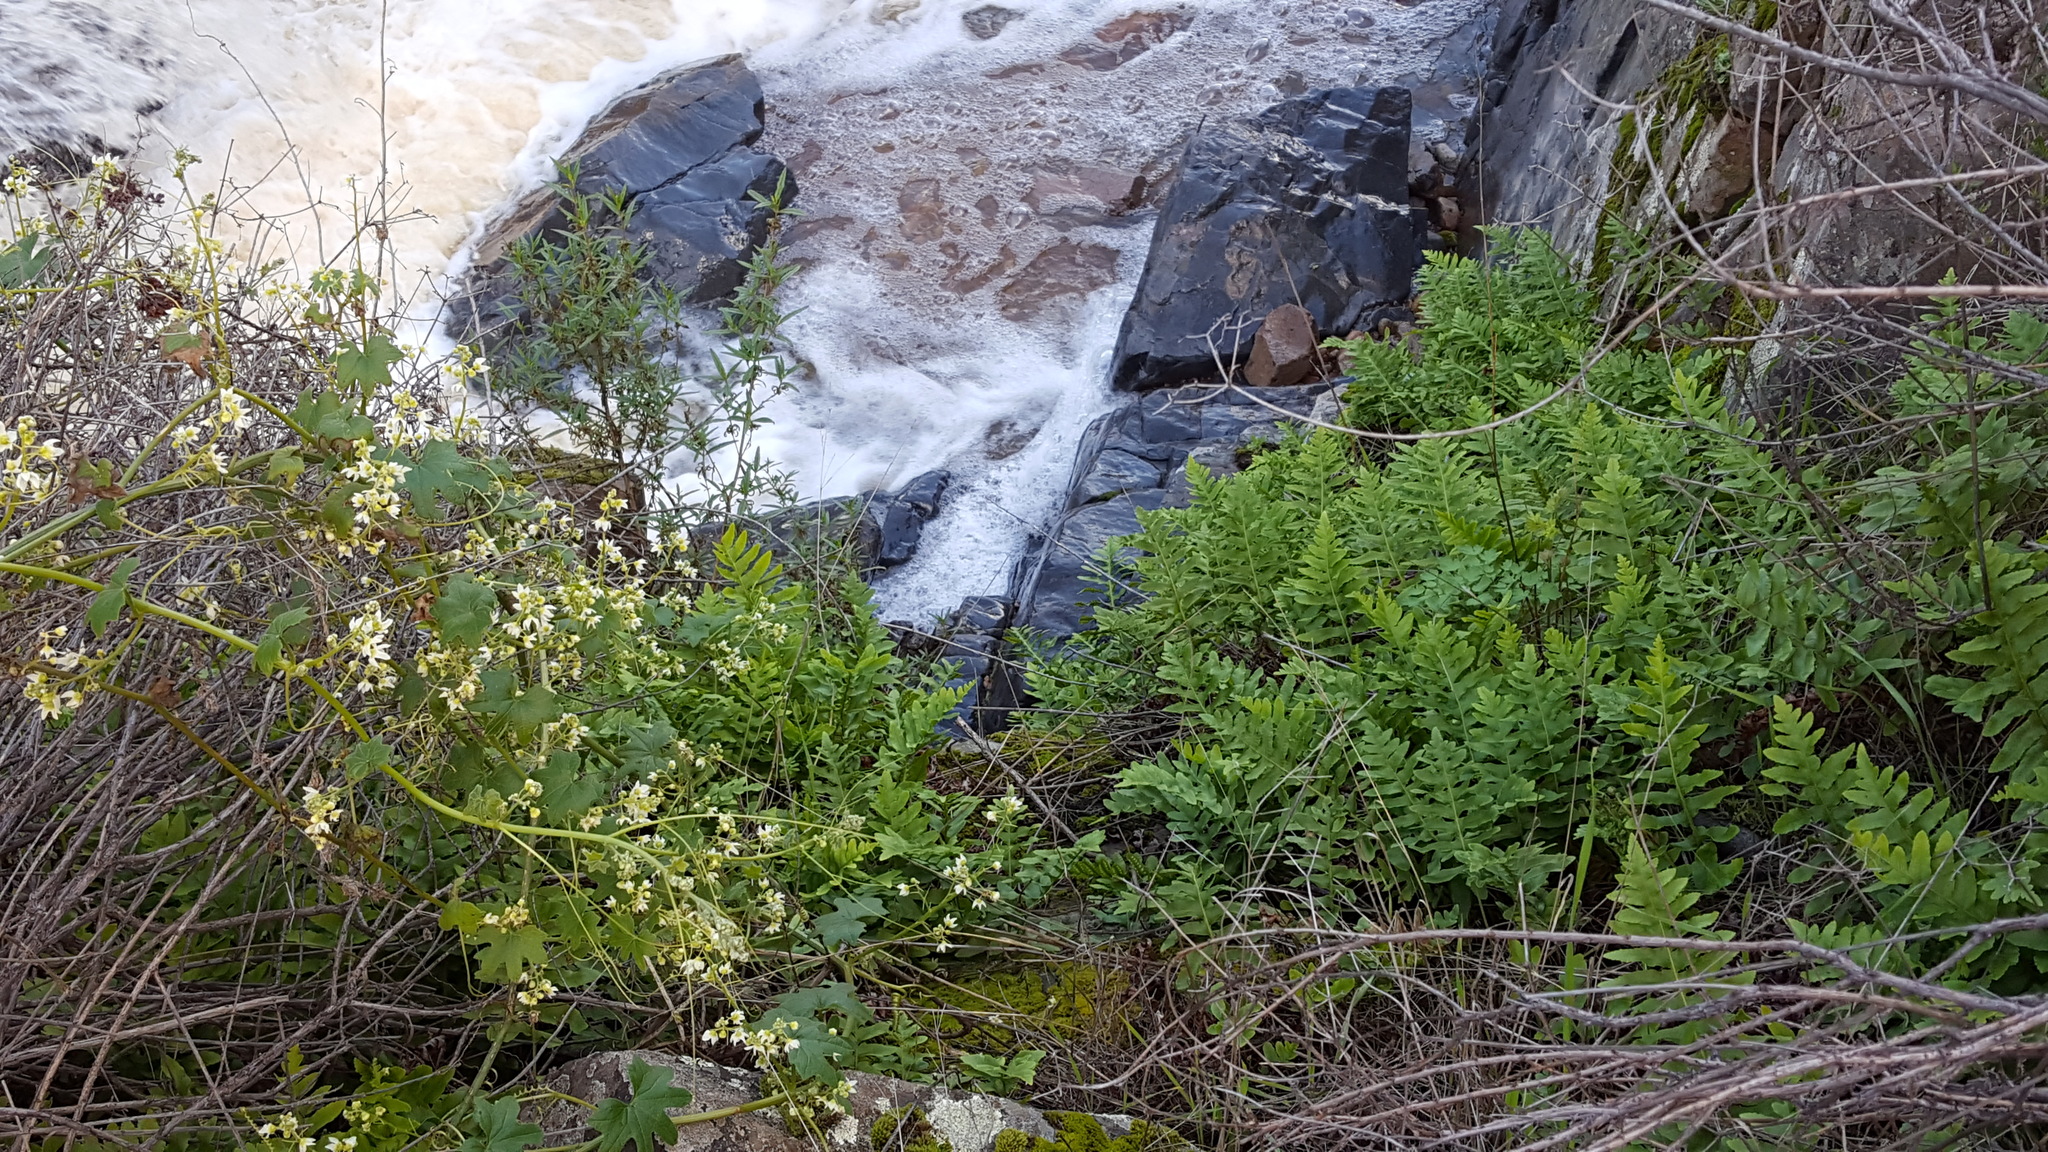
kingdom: Plantae
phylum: Tracheophyta
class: Polypodiopsida
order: Polypodiales
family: Polypodiaceae
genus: Polypodium
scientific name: Polypodium californicum
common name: California polypody
